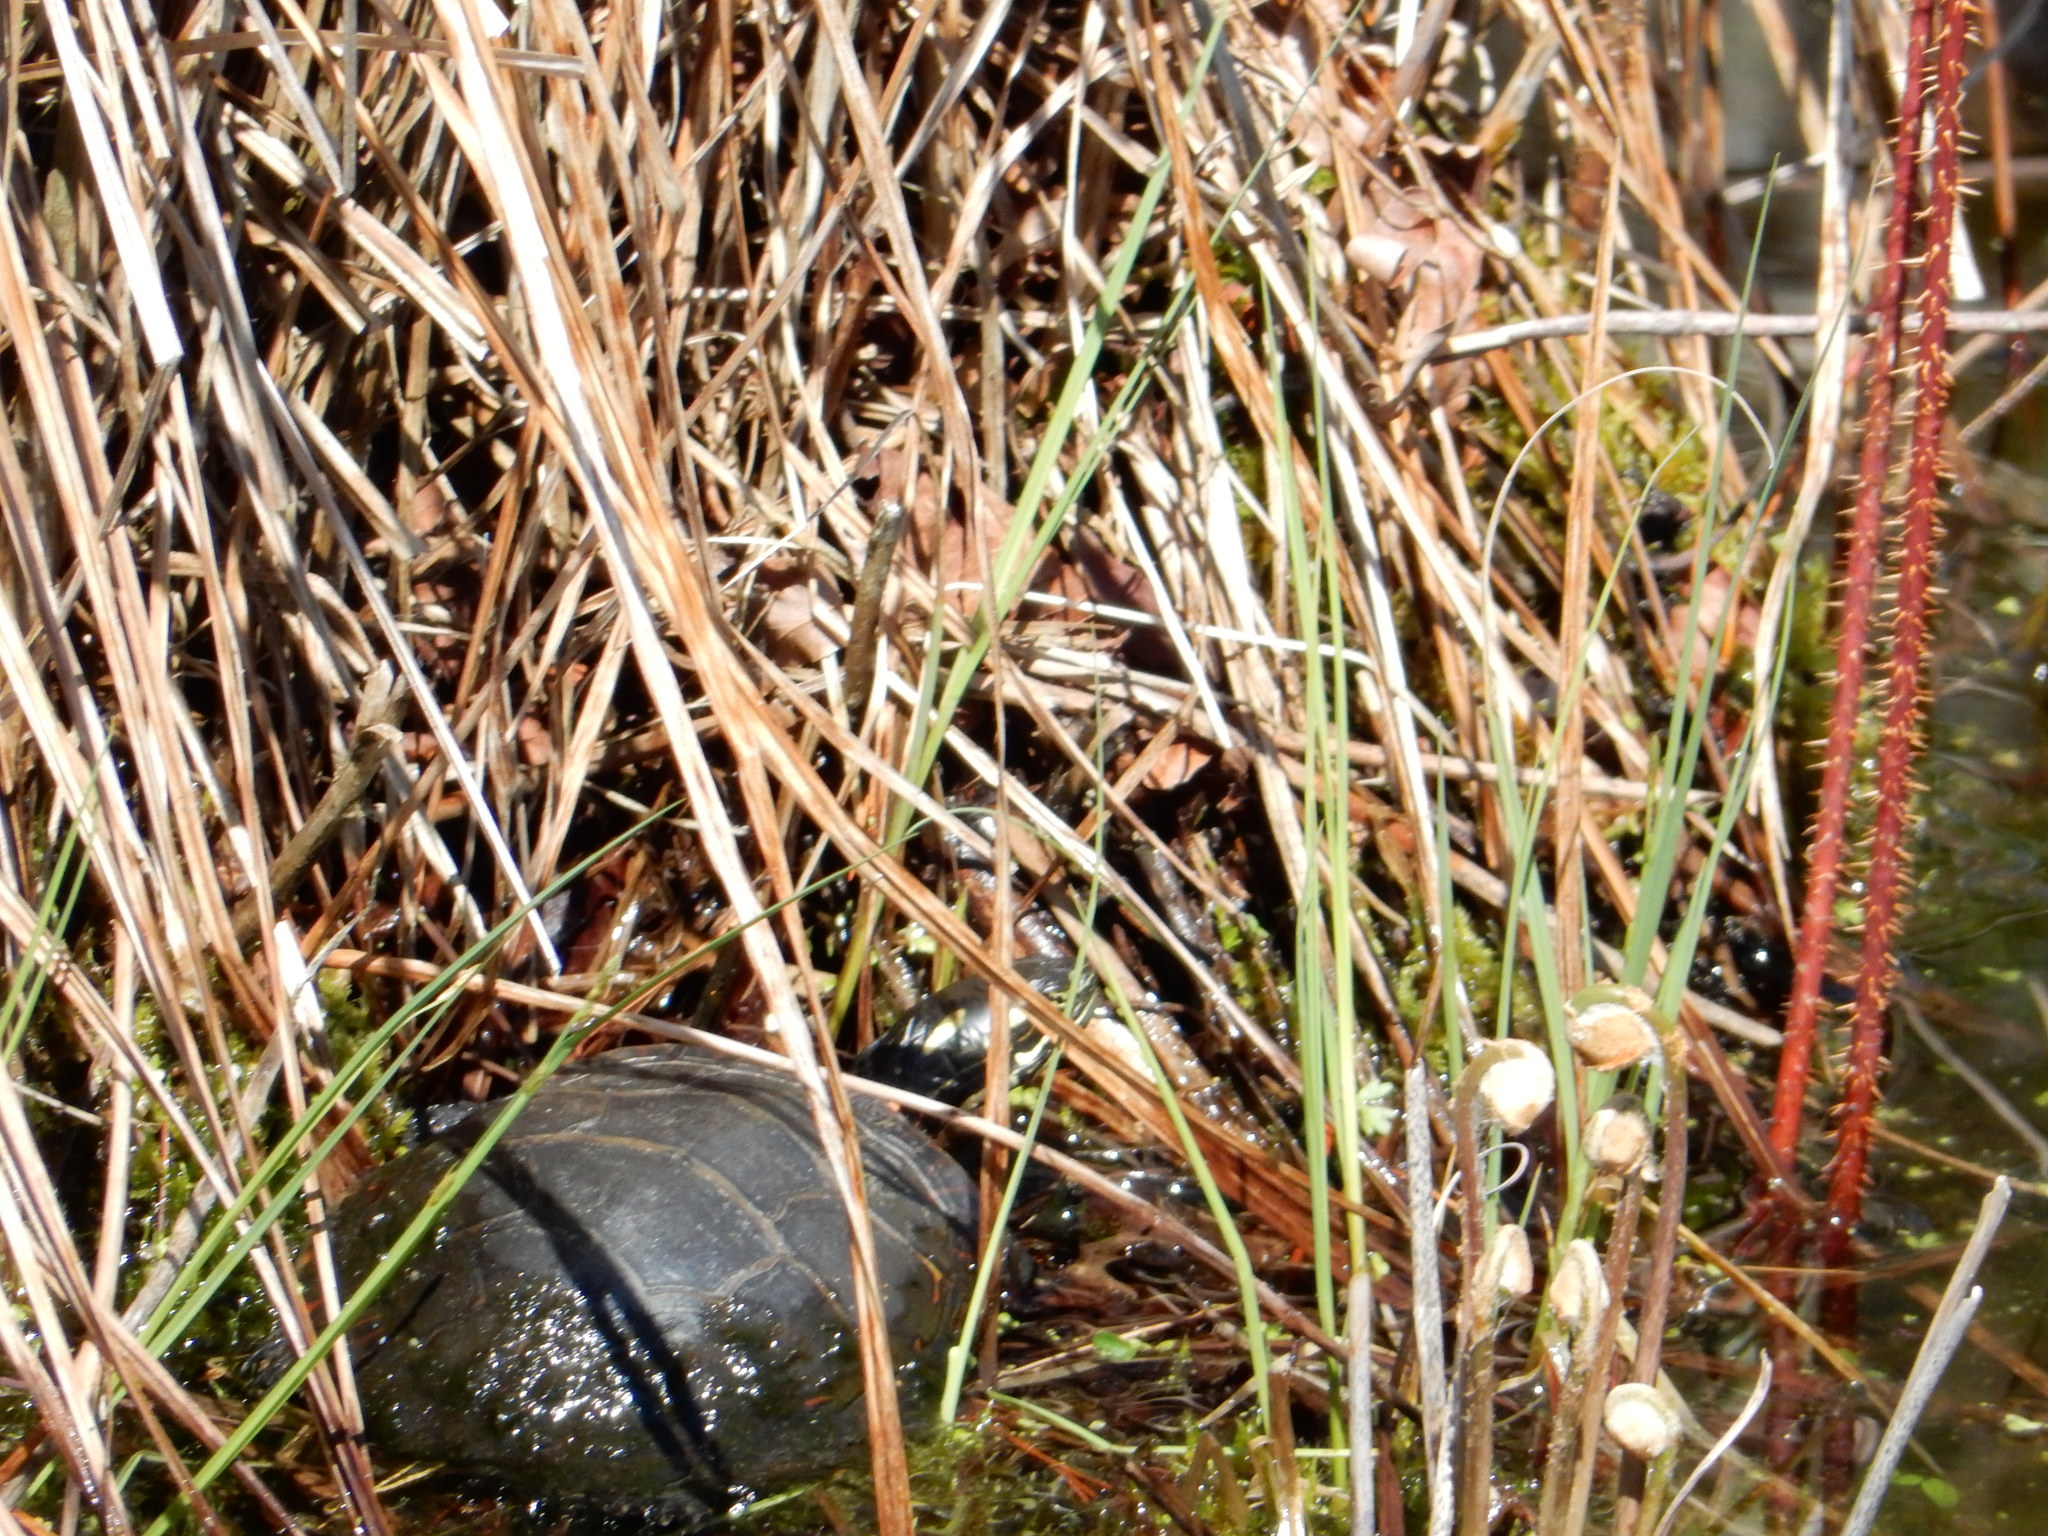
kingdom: Animalia
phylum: Chordata
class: Testudines
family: Emydidae
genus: Chrysemys
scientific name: Chrysemys picta
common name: Painted turtle
